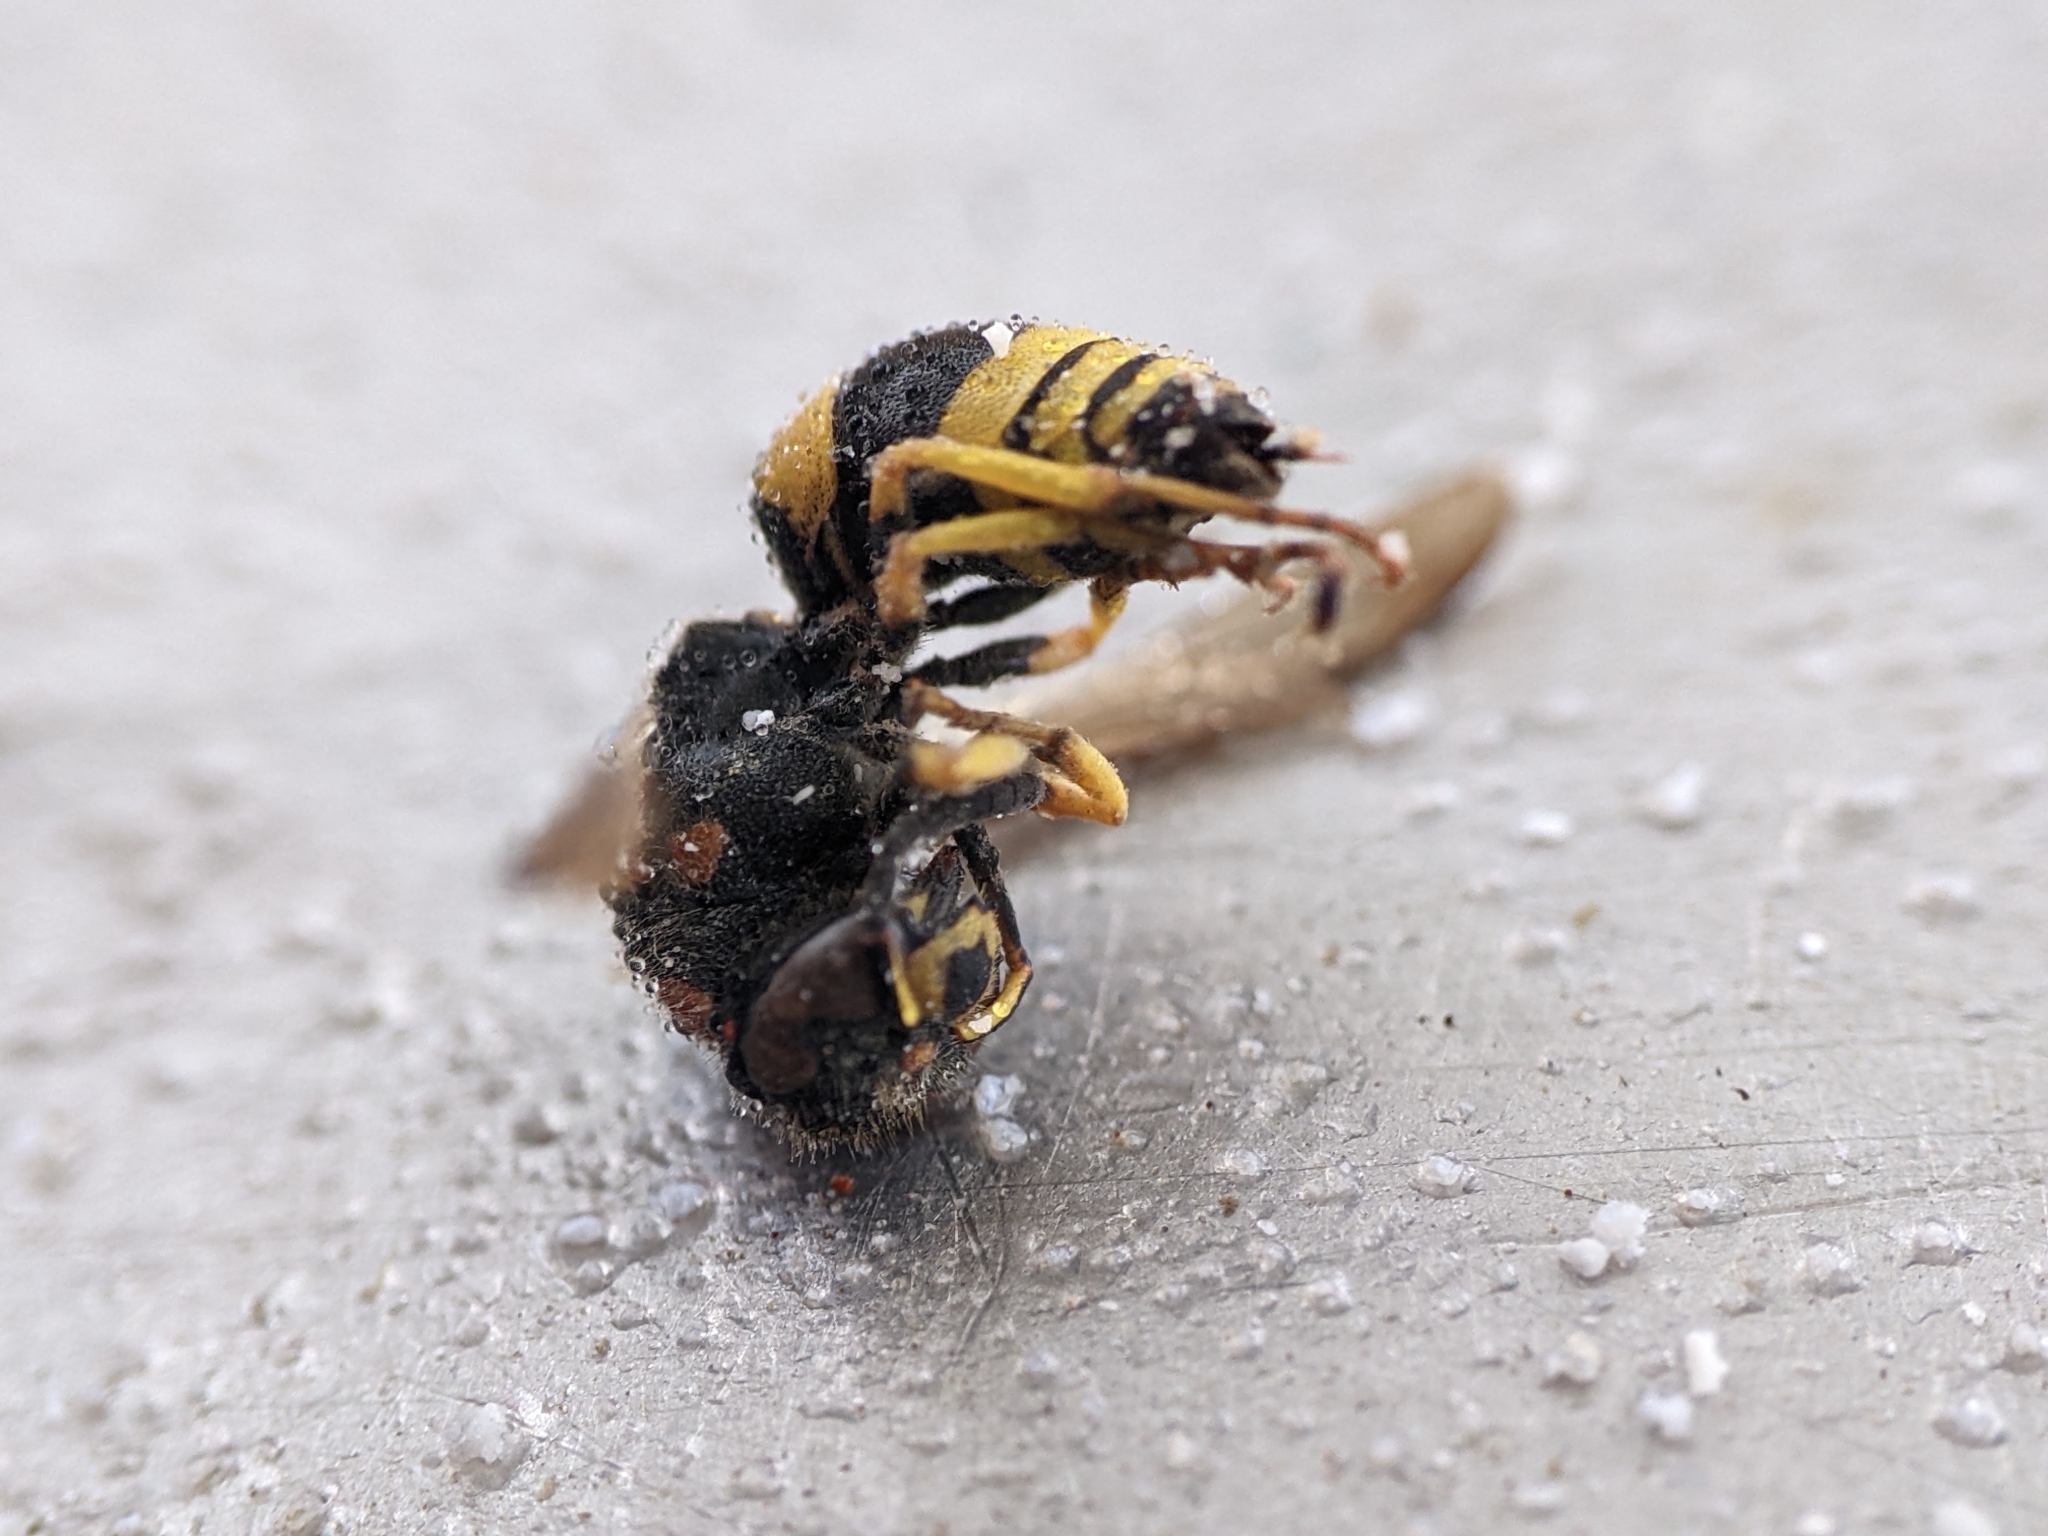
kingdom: Animalia
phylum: Arthropoda
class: Insecta
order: Hymenoptera
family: Vespidae
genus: Ancistrocerus
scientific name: Ancistrocerus gazella
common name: European tube wasp
